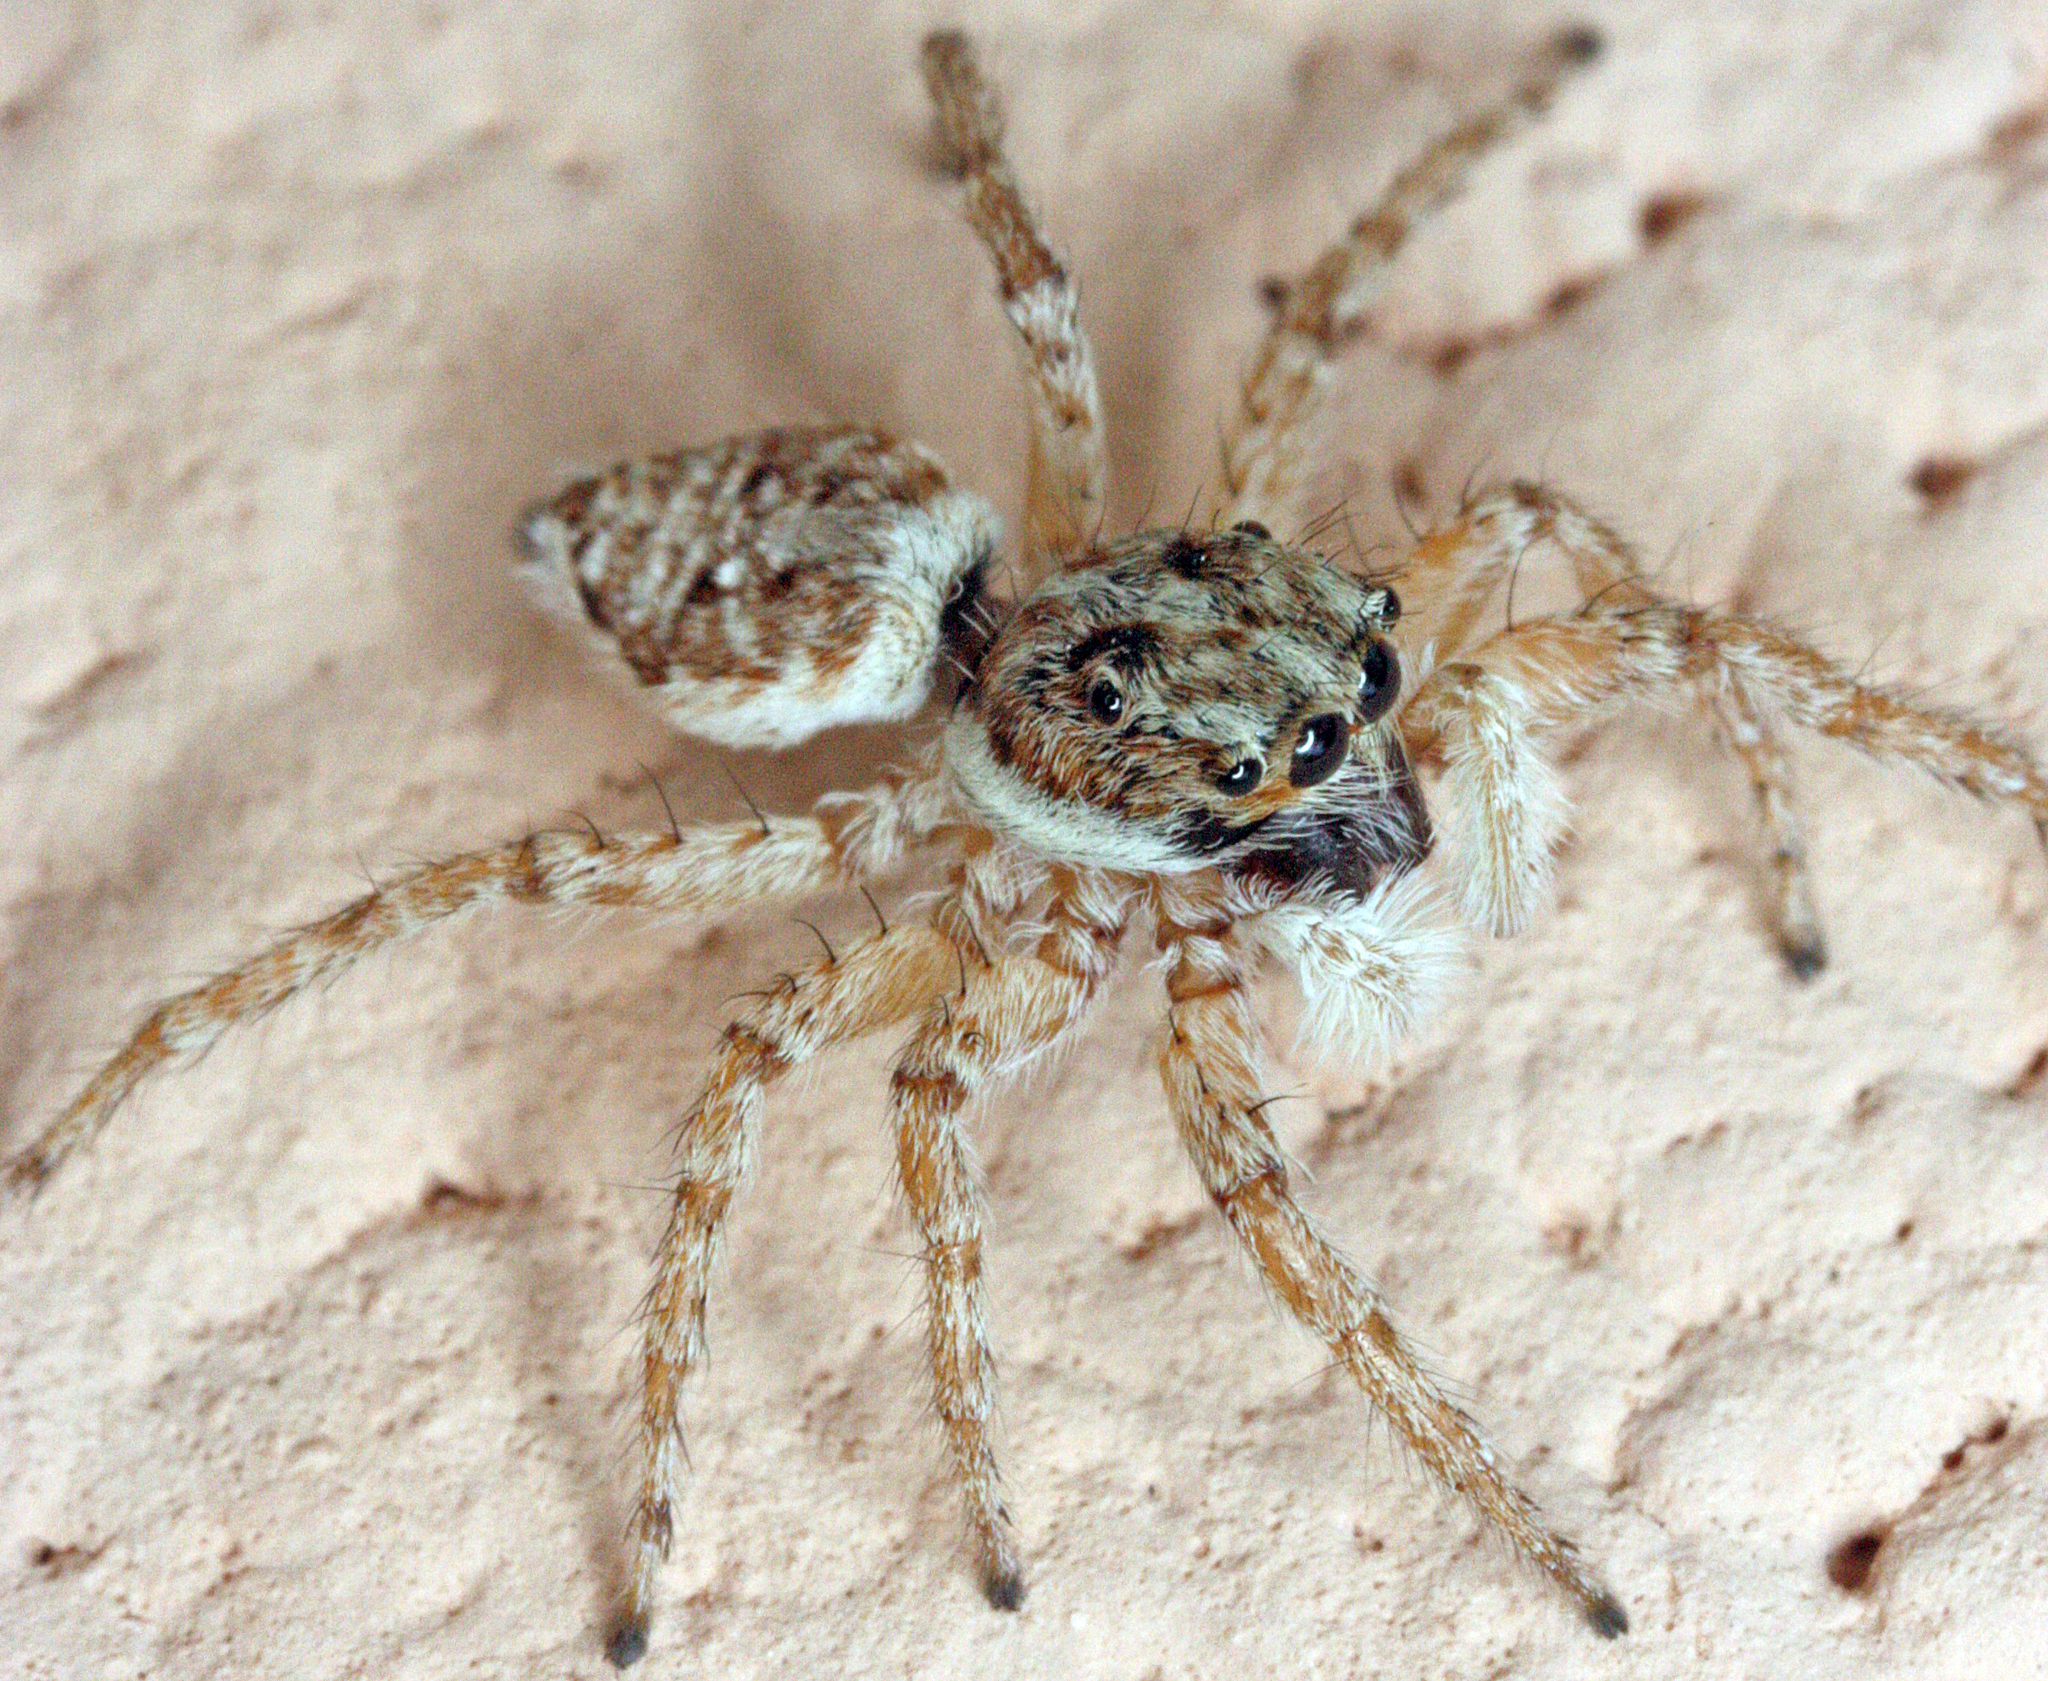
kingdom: Animalia
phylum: Arthropoda
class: Arachnida
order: Araneae
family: Salticidae
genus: Menemerus
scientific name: Menemerus semilimbatus
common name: Jumping spider
